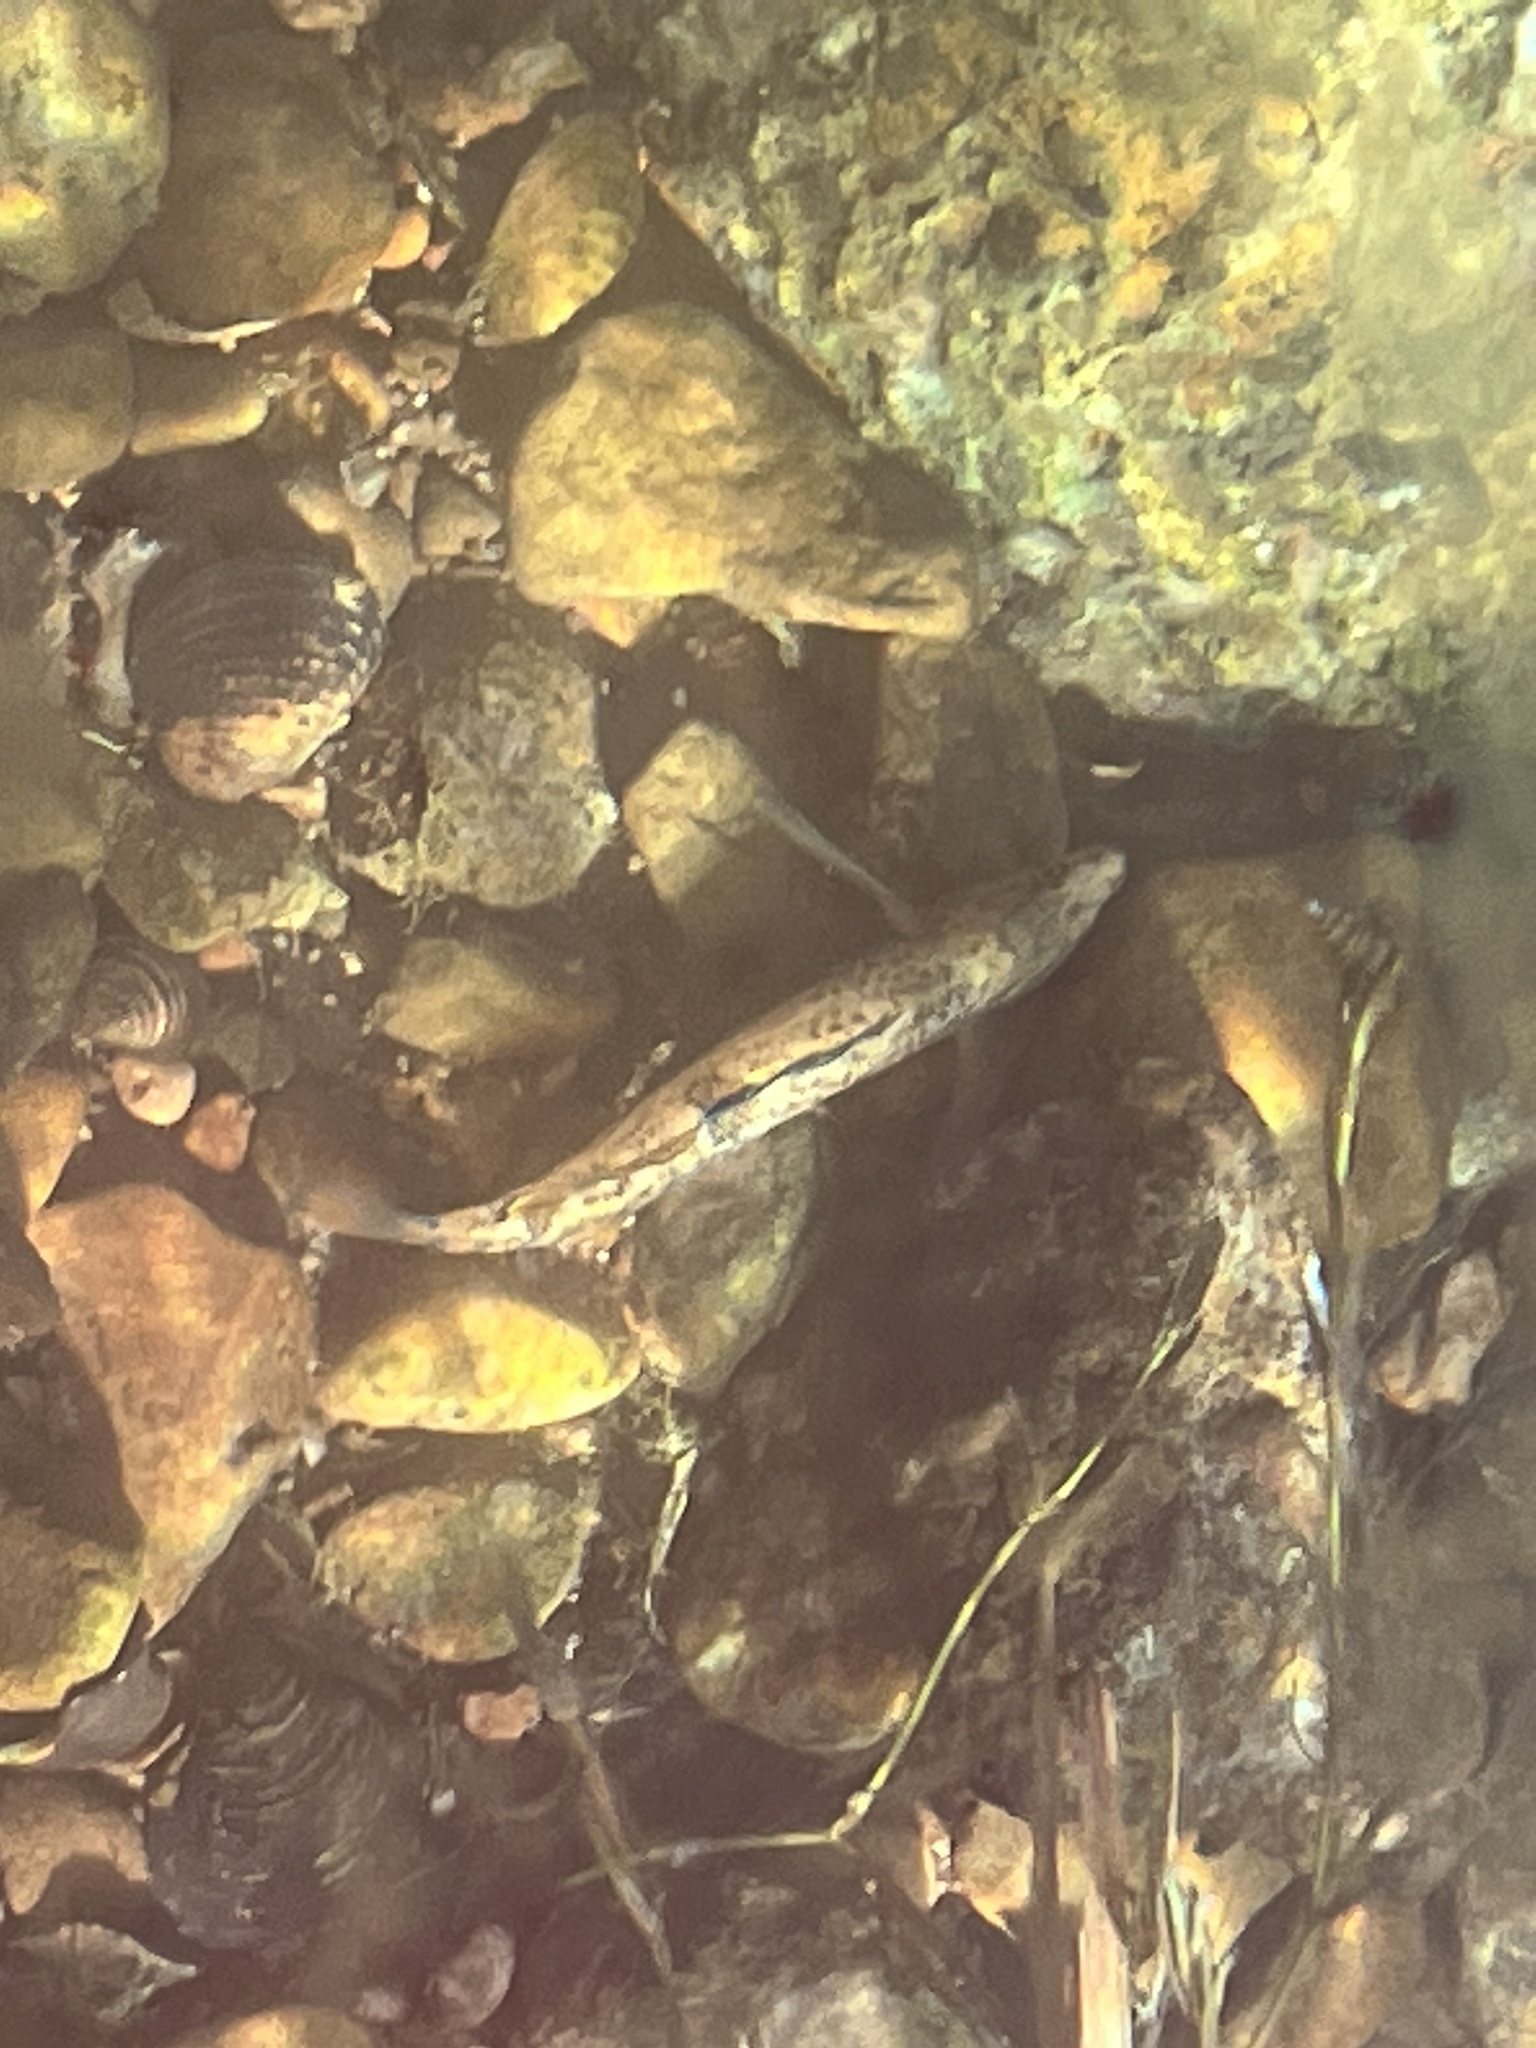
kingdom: Animalia
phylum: Chordata
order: Perciformes
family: Percidae
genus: Etheostoma
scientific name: Etheostoma caeruleum
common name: Rainbow darter
